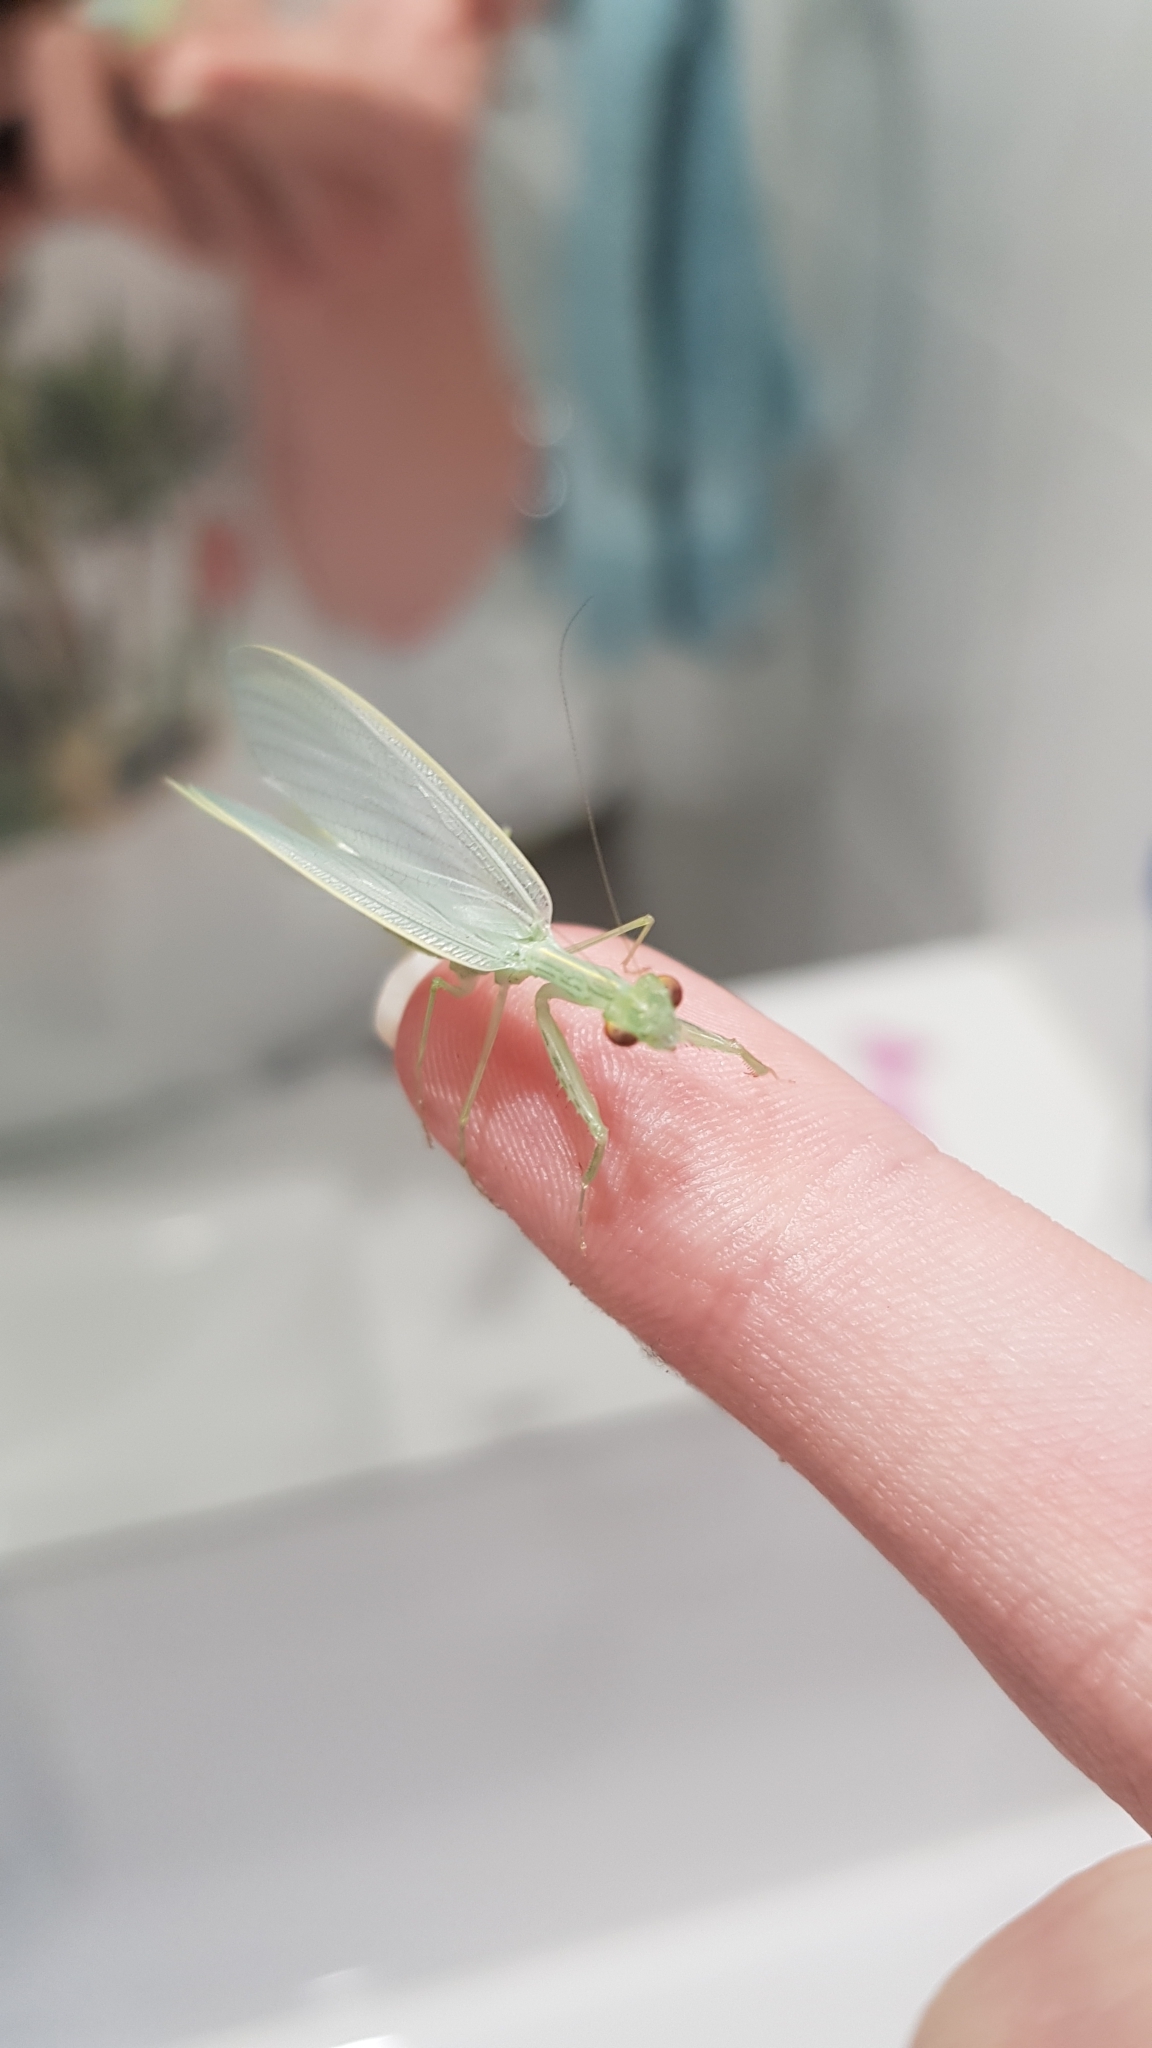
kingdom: Animalia
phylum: Arthropoda
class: Insecta
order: Mantodea
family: Nanomantidae
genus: Kongobatha
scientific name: Kongobatha diademata
